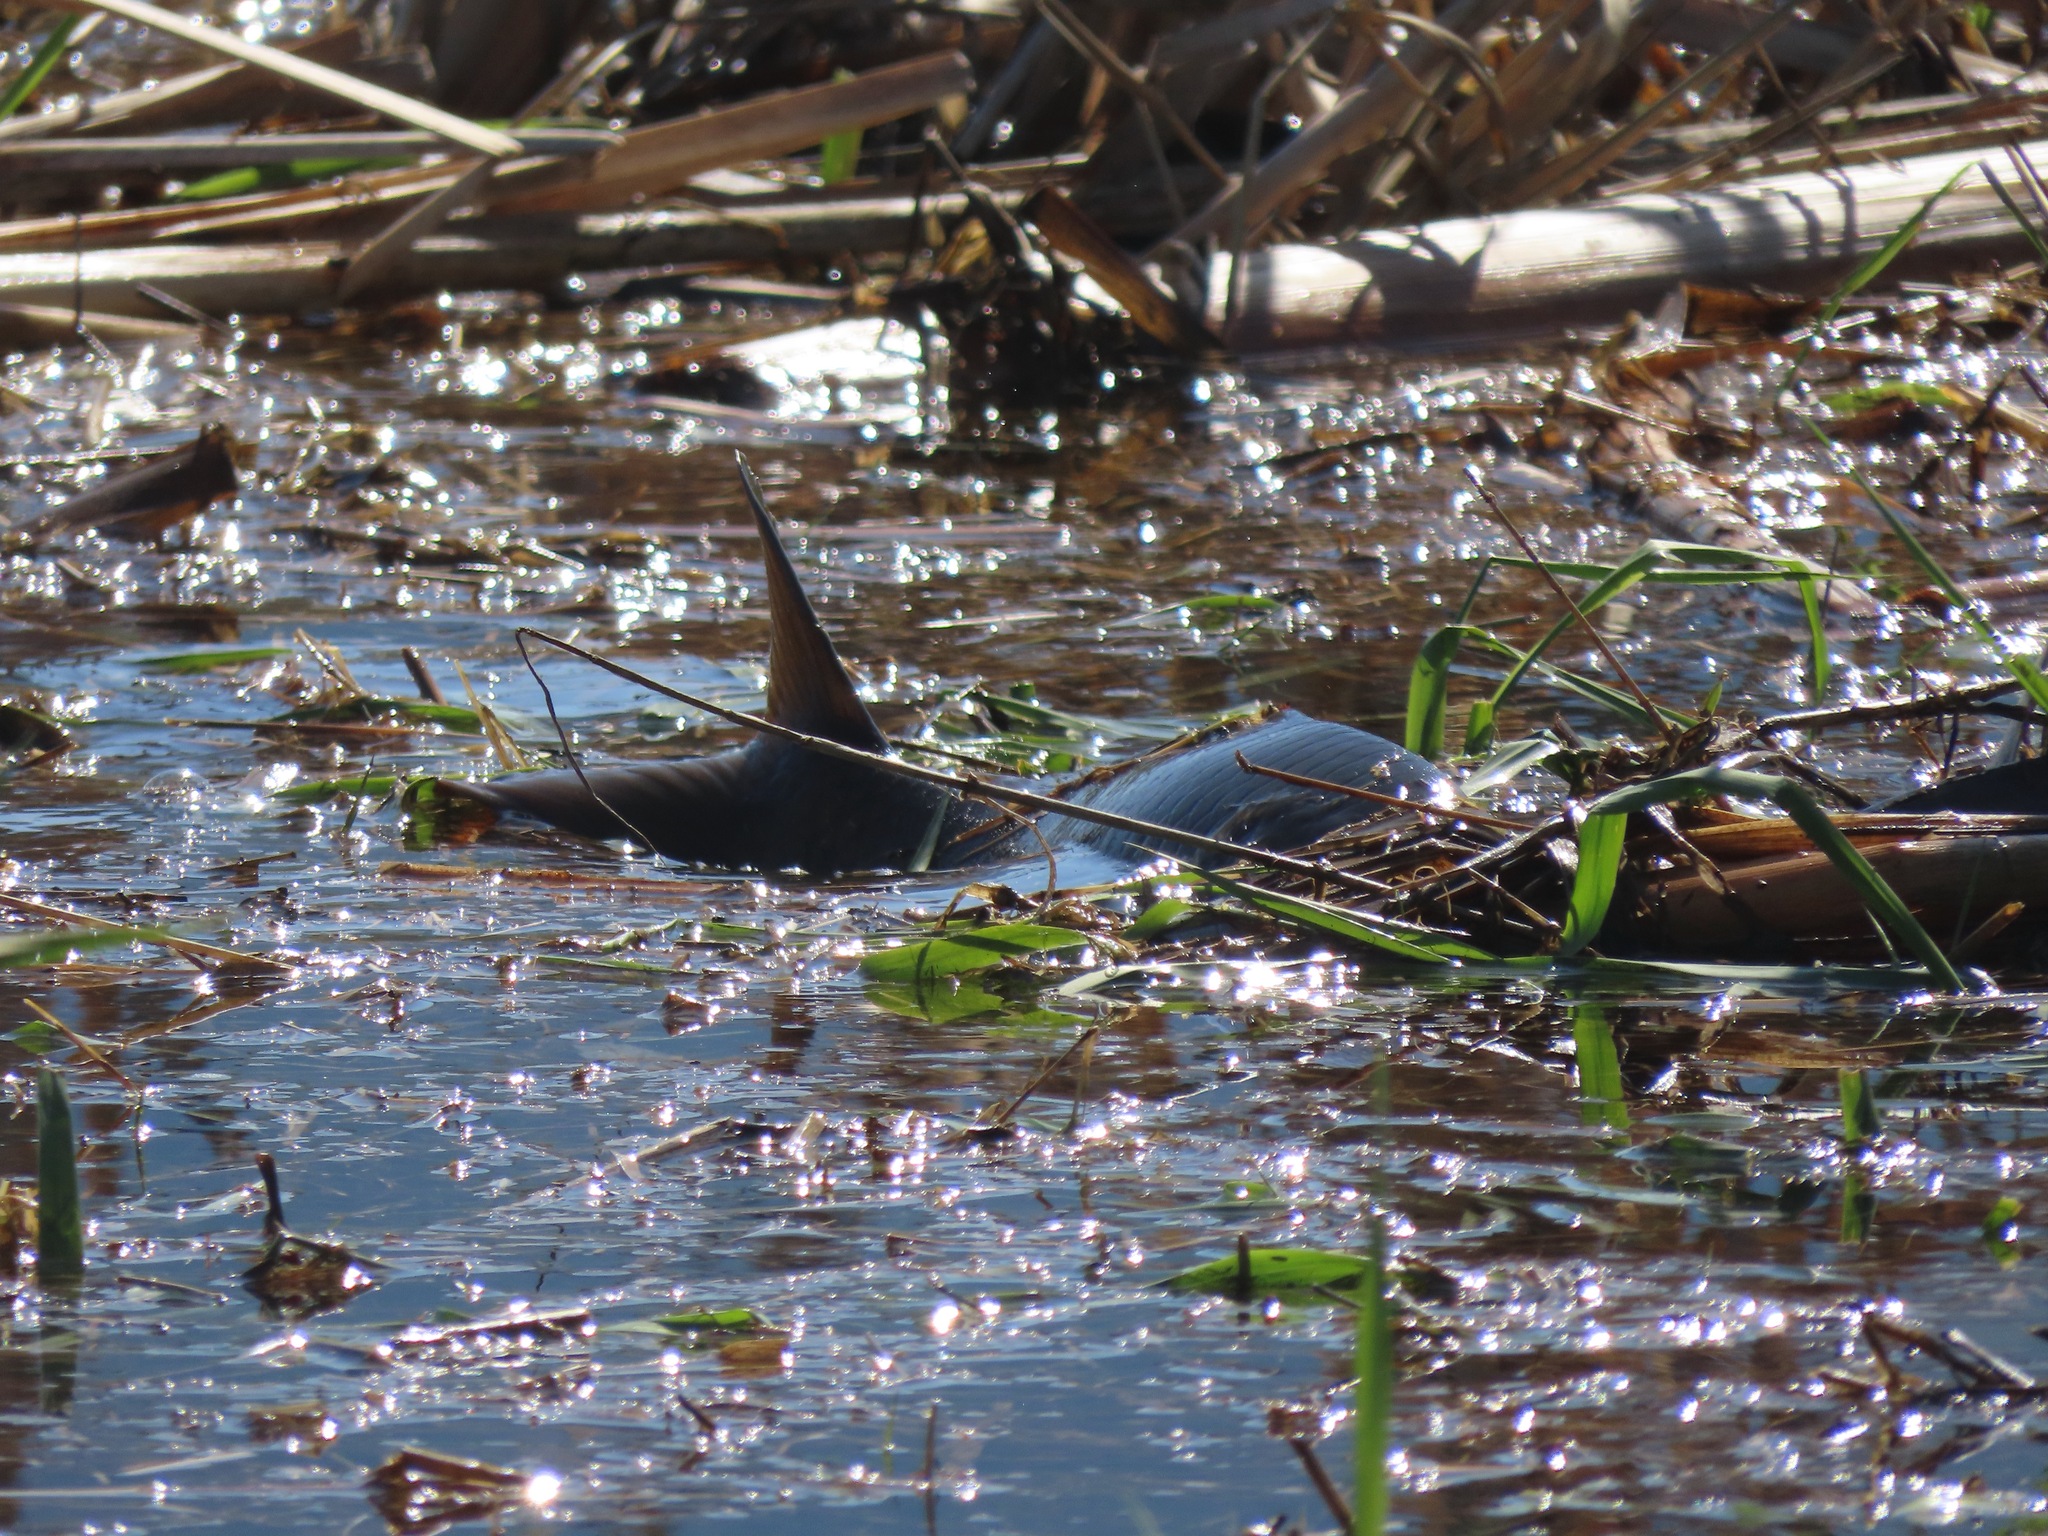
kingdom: Animalia
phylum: Chordata
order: Cypriniformes
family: Cyprinidae
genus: Cyprinus
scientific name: Cyprinus carpio
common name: Common carp
